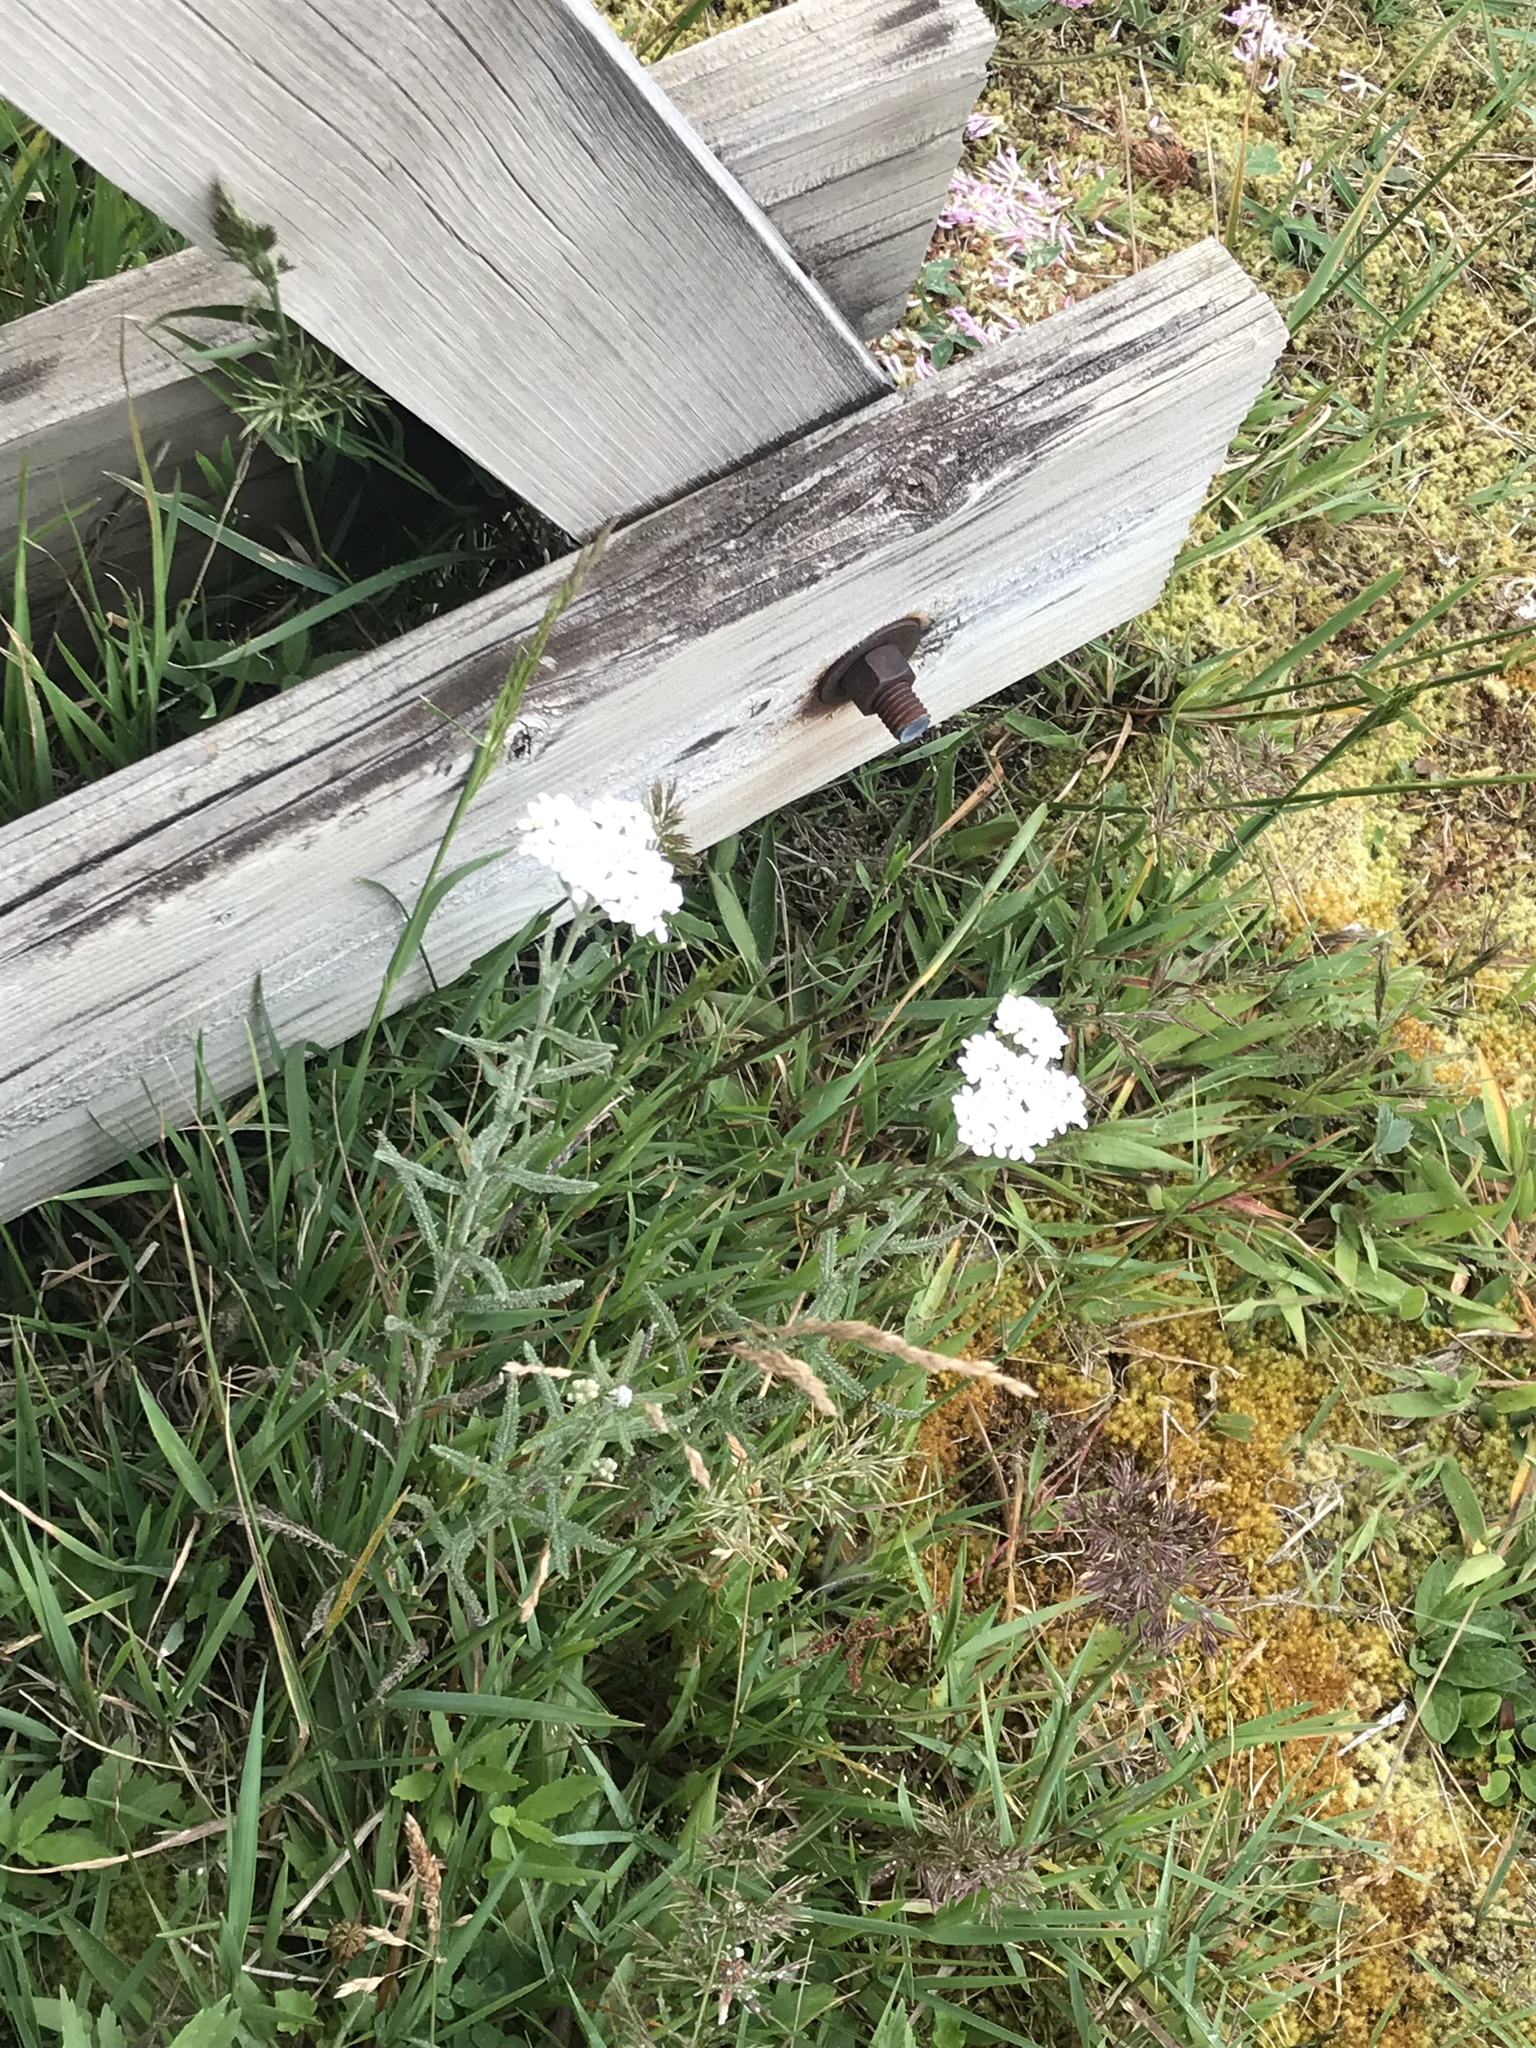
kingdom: Plantae
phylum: Tracheophyta
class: Magnoliopsida
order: Asterales
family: Asteraceae
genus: Achillea
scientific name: Achillea millefolium
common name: Yarrow
